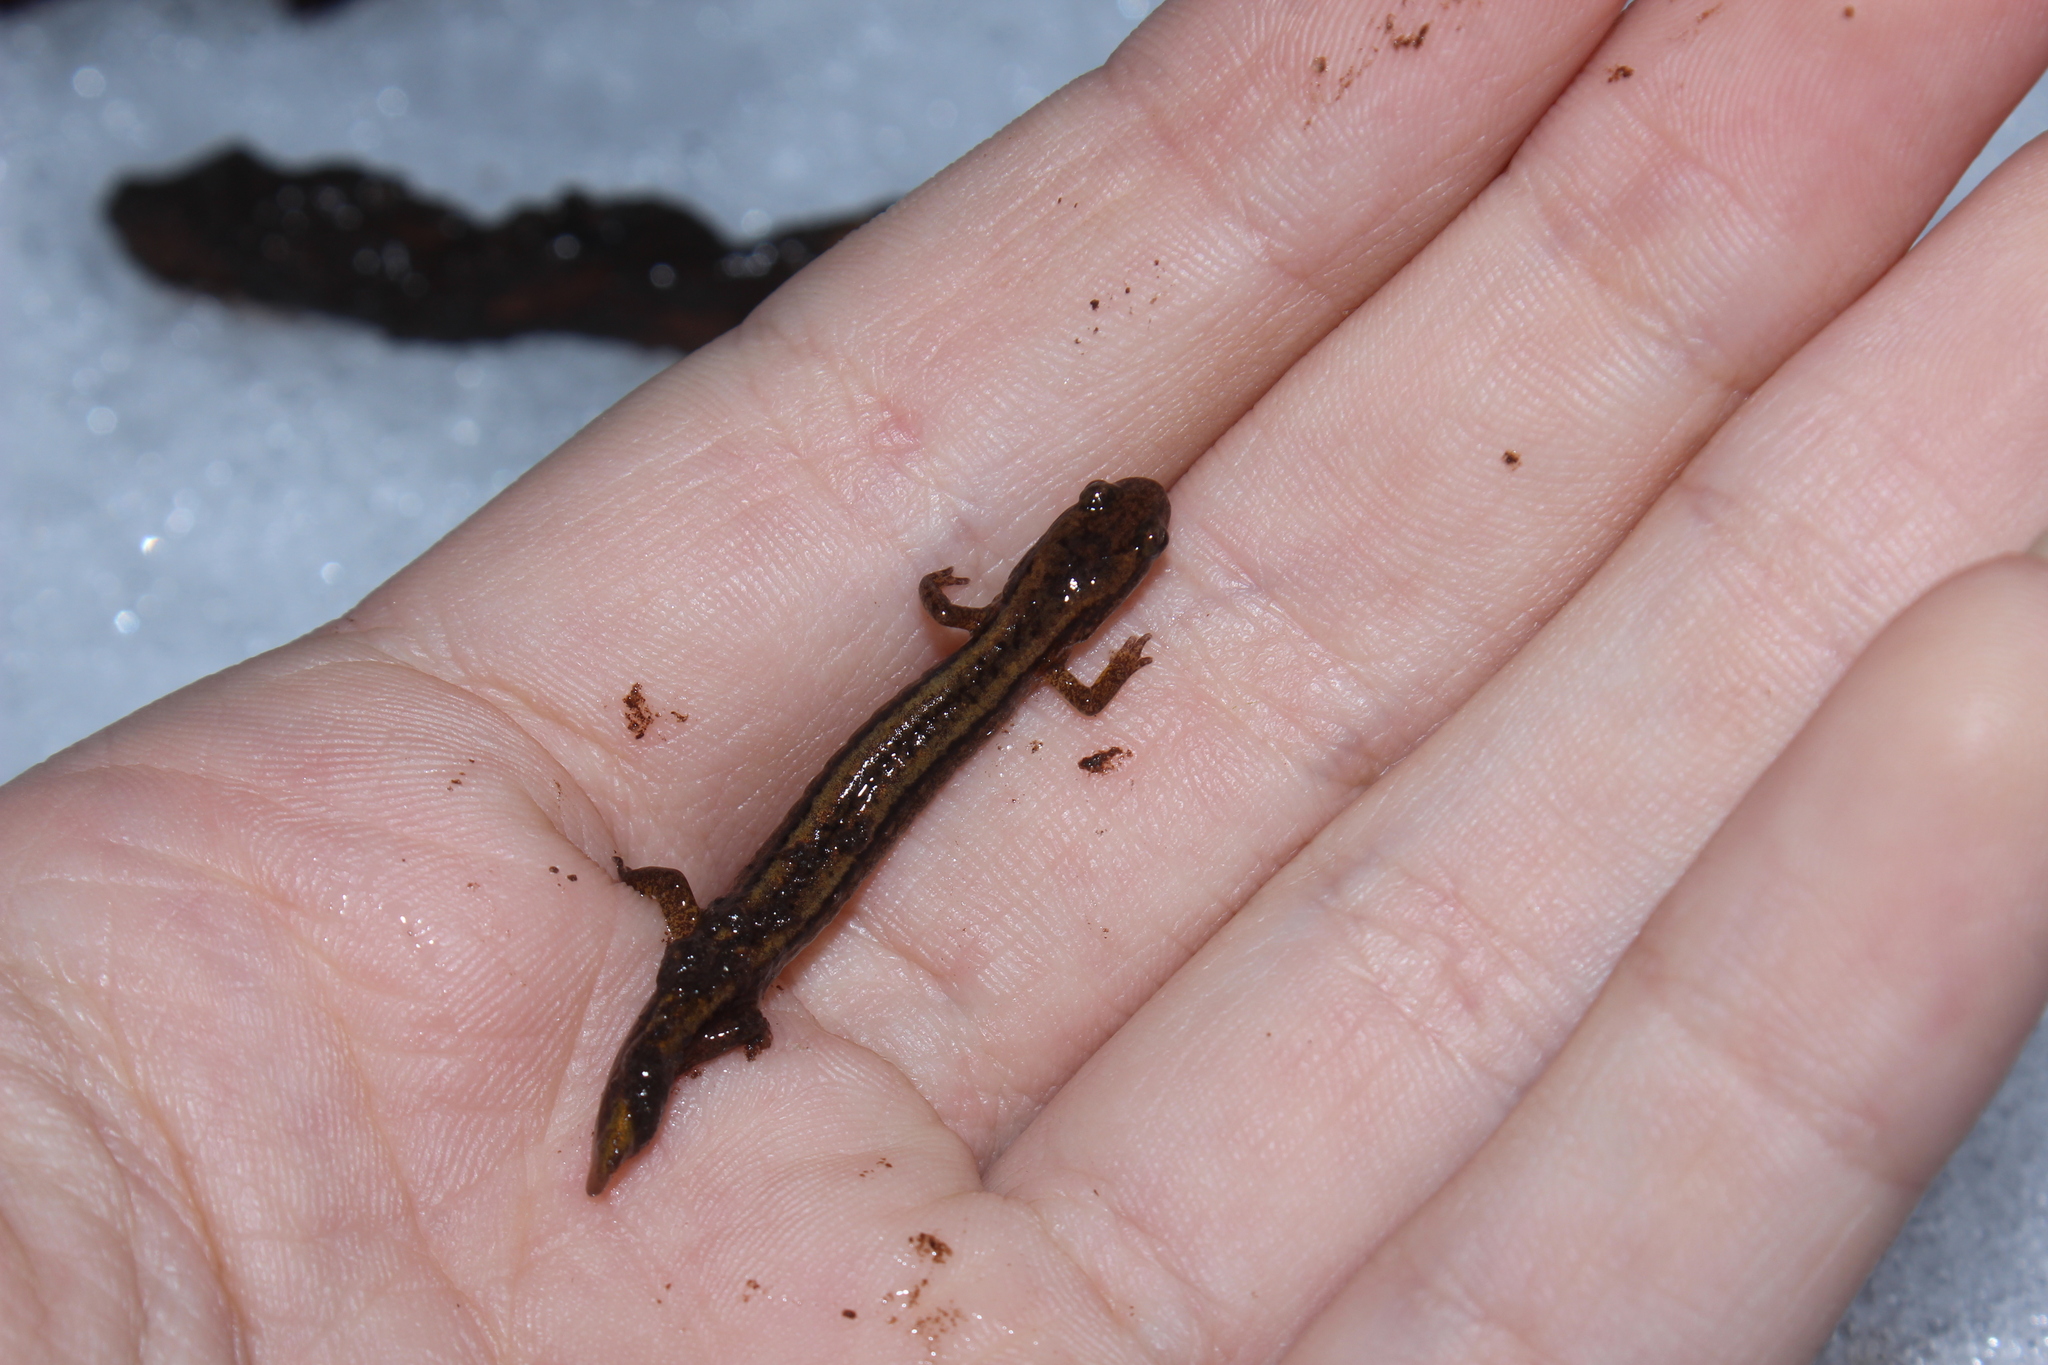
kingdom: Animalia
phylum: Chordata
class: Amphibia
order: Caudata
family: Plethodontidae
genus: Eurycea
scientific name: Eurycea bislineata
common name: Northern two-lined salamander
